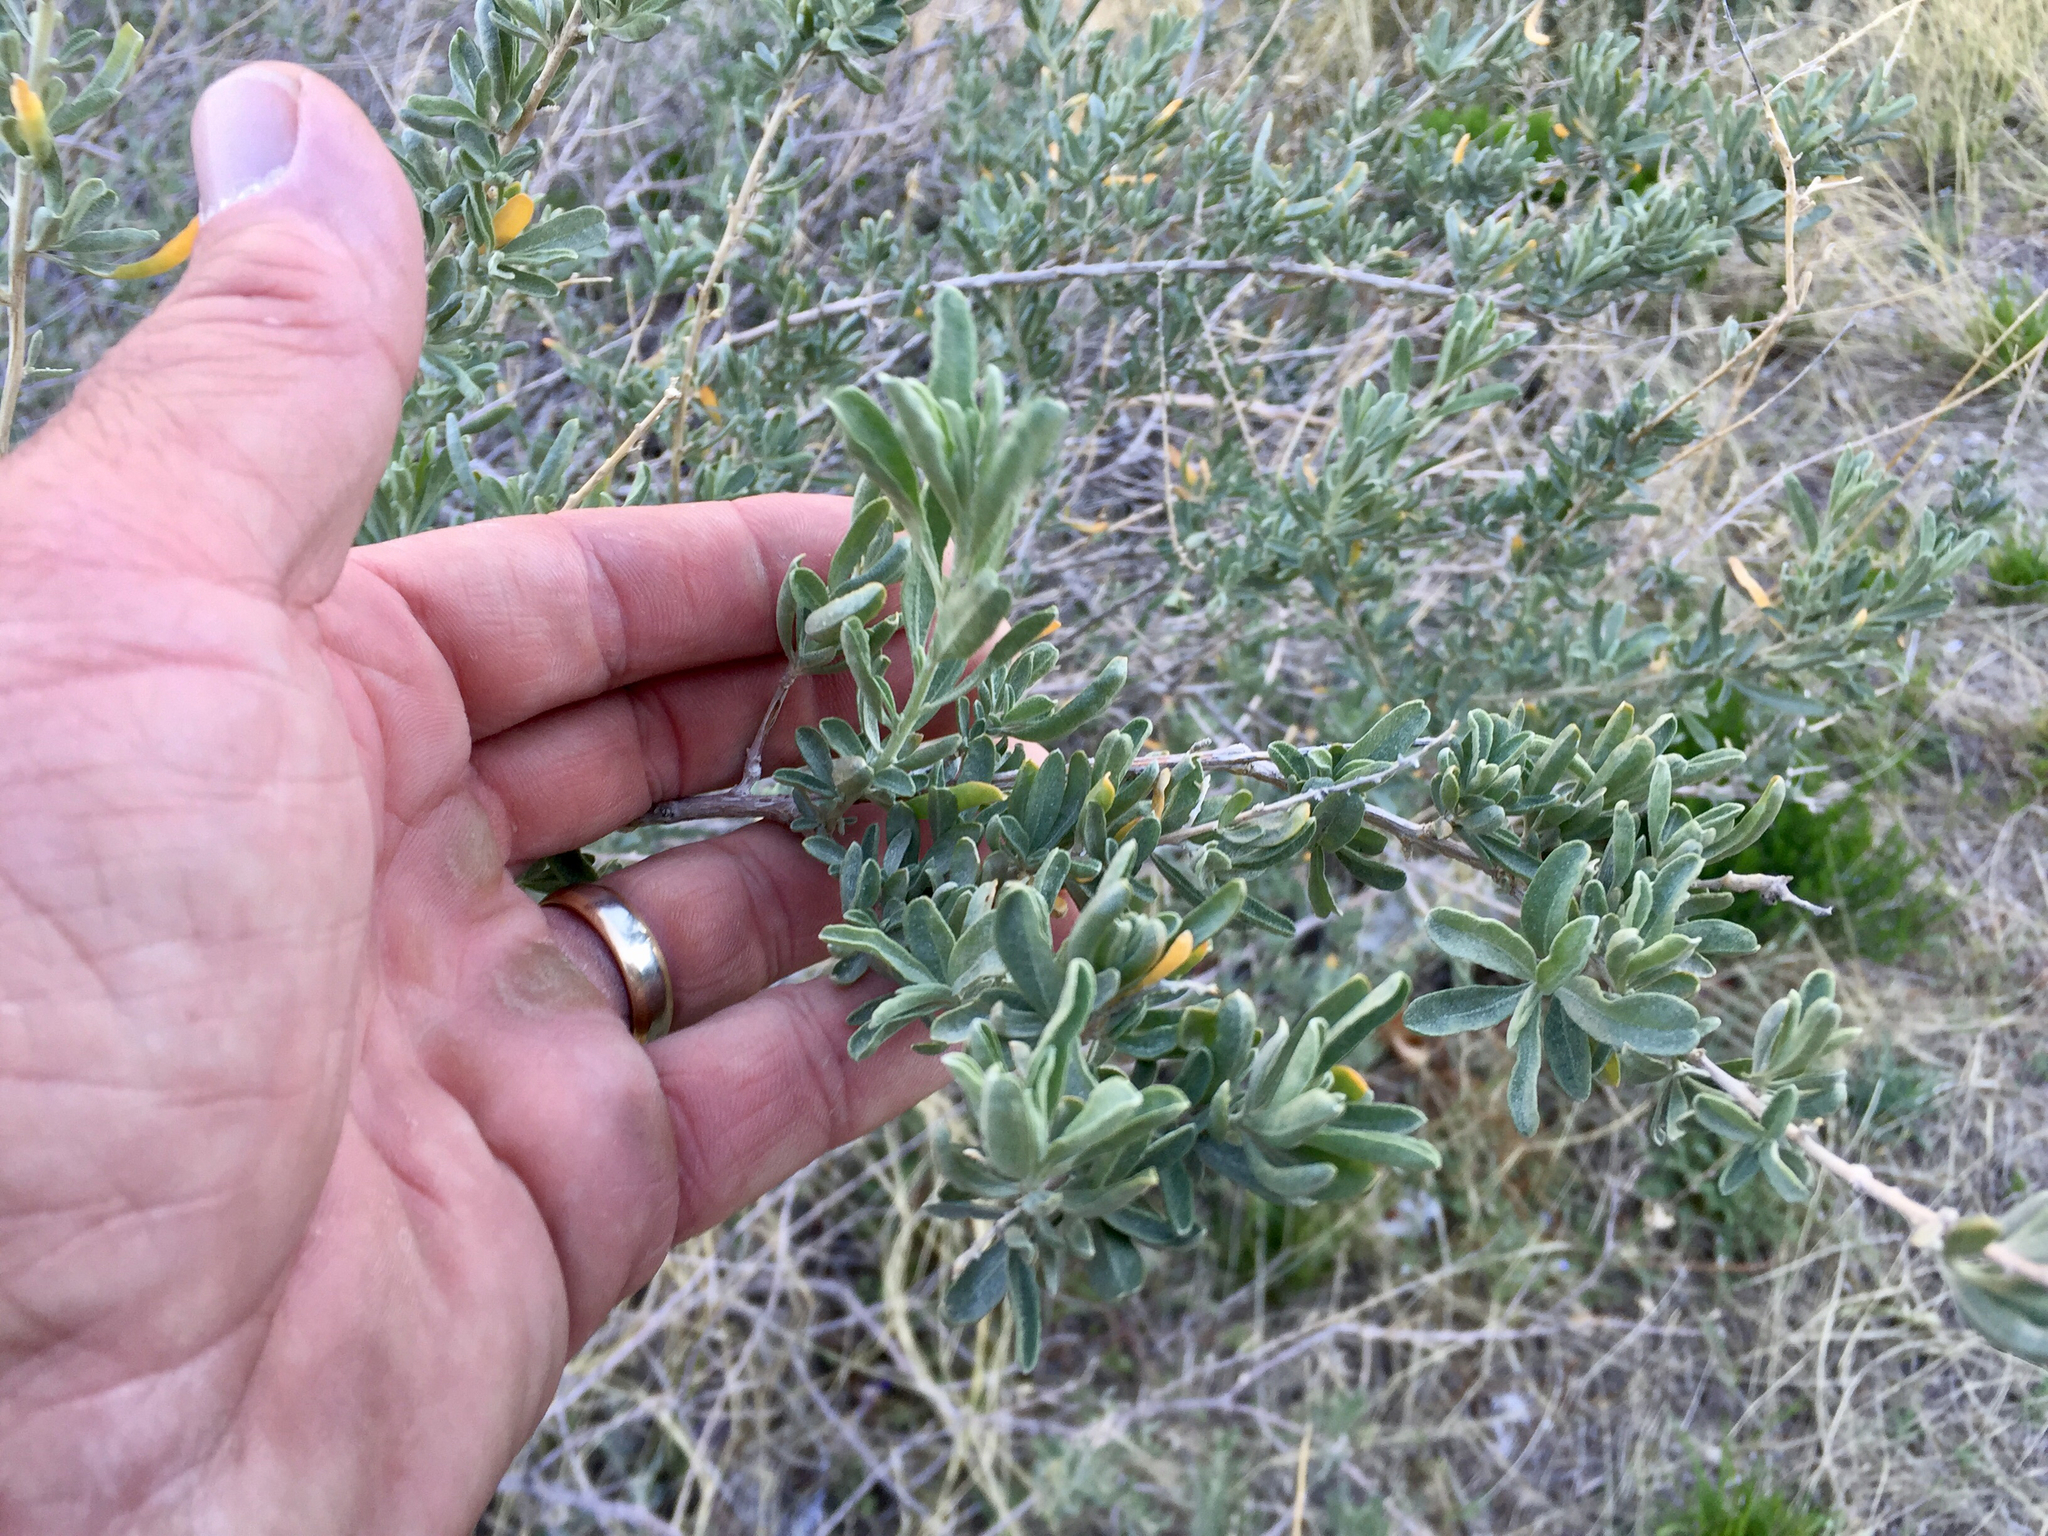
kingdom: Plantae
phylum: Tracheophyta
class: Magnoliopsida
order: Caryophyllales
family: Amaranthaceae
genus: Atriplex
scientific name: Atriplex canescens
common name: Four-wing saltbush
